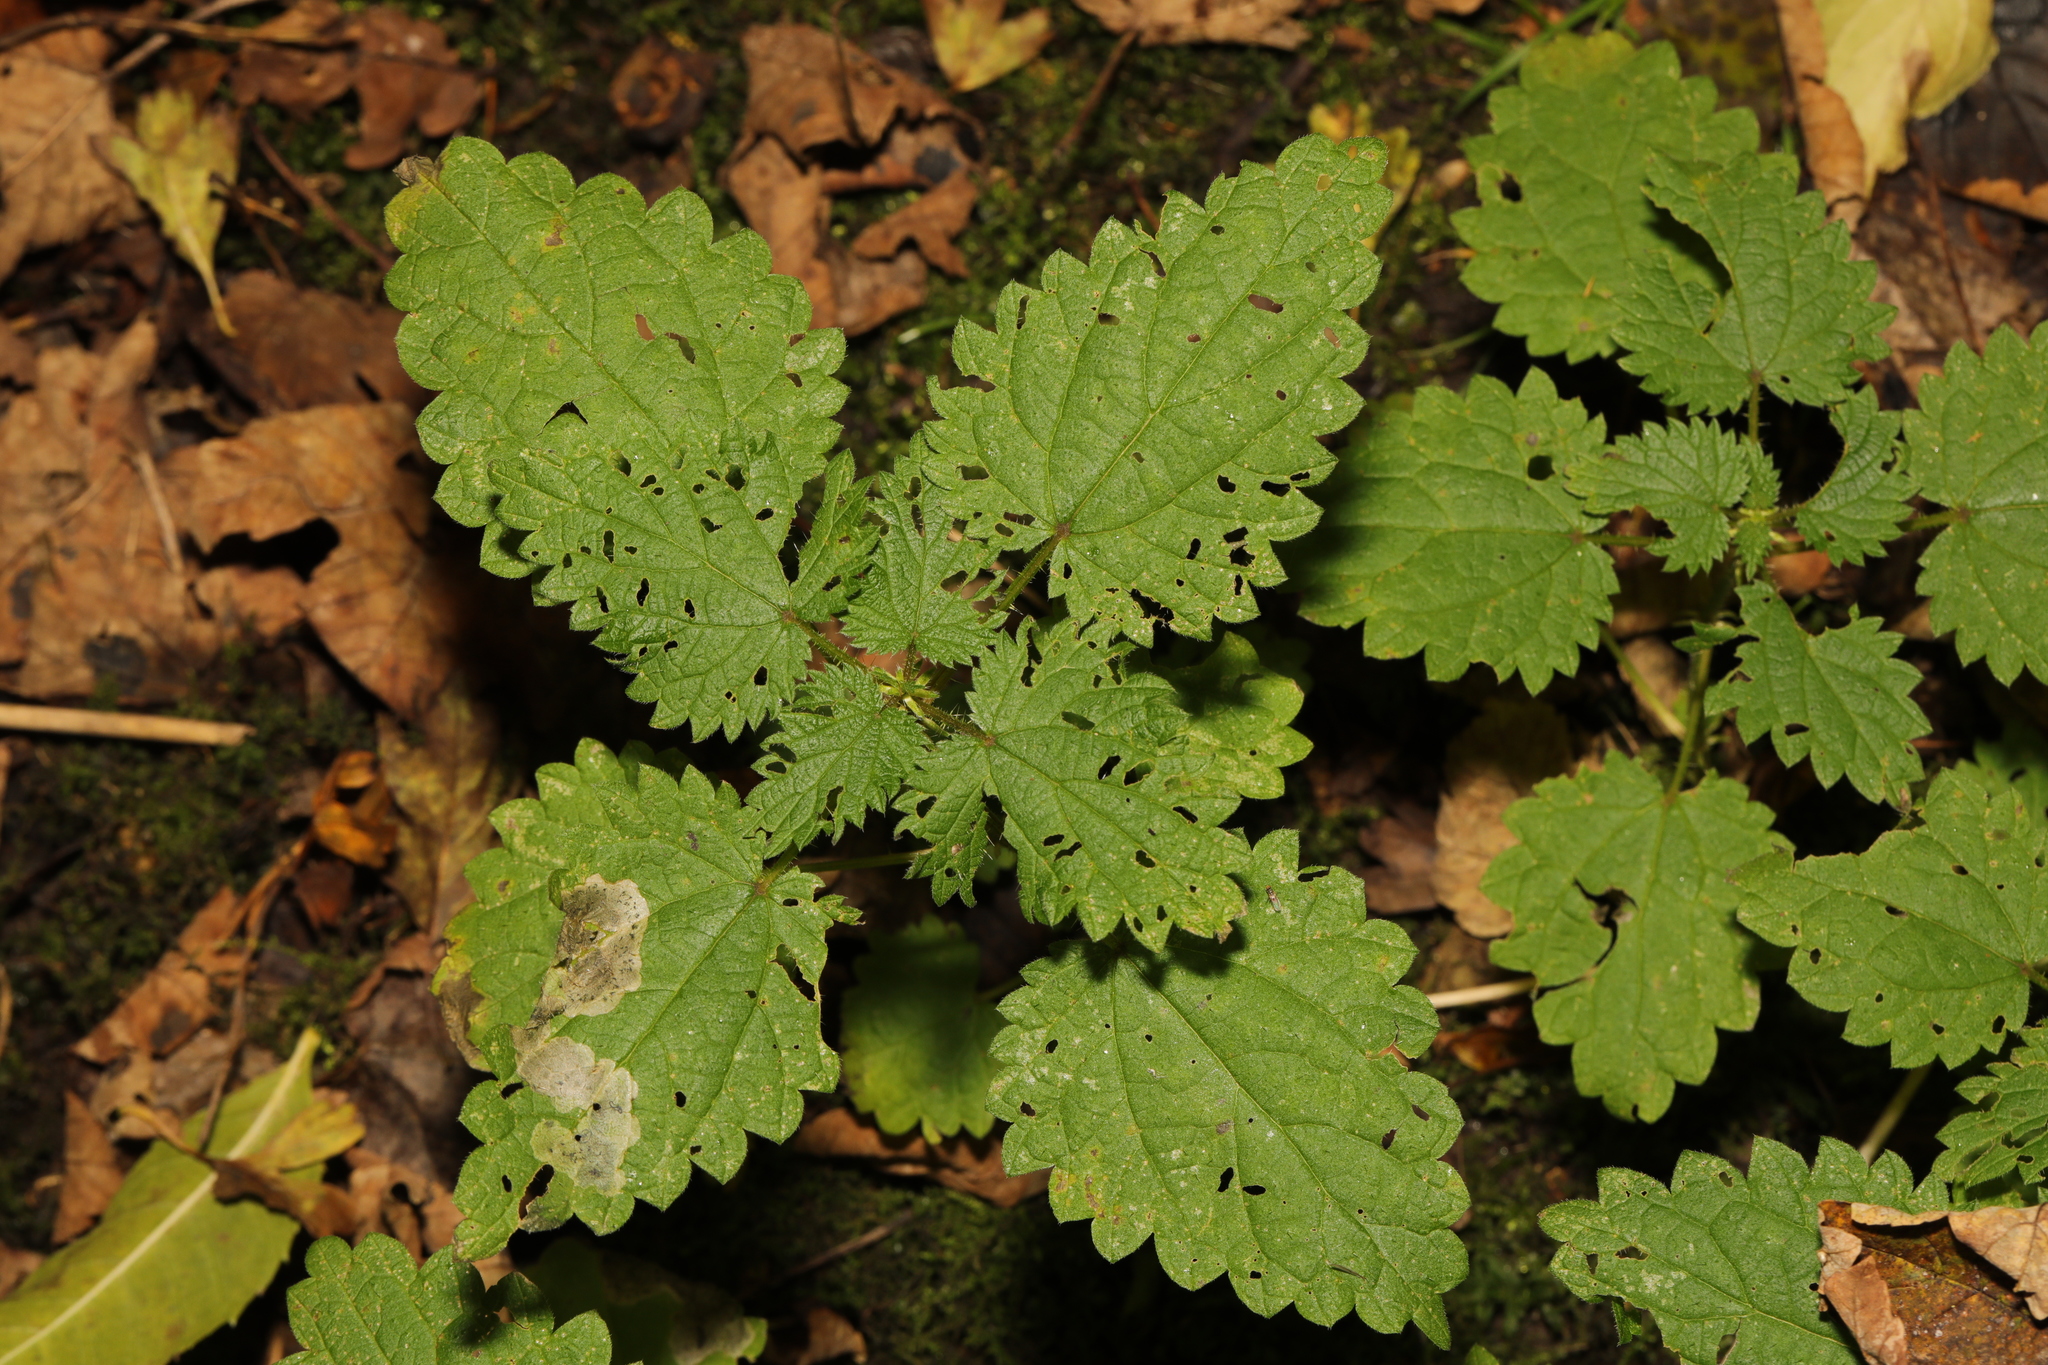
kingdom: Plantae
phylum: Tracheophyta
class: Magnoliopsida
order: Rosales
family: Urticaceae
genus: Urtica
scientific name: Urtica dioica
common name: Common nettle
